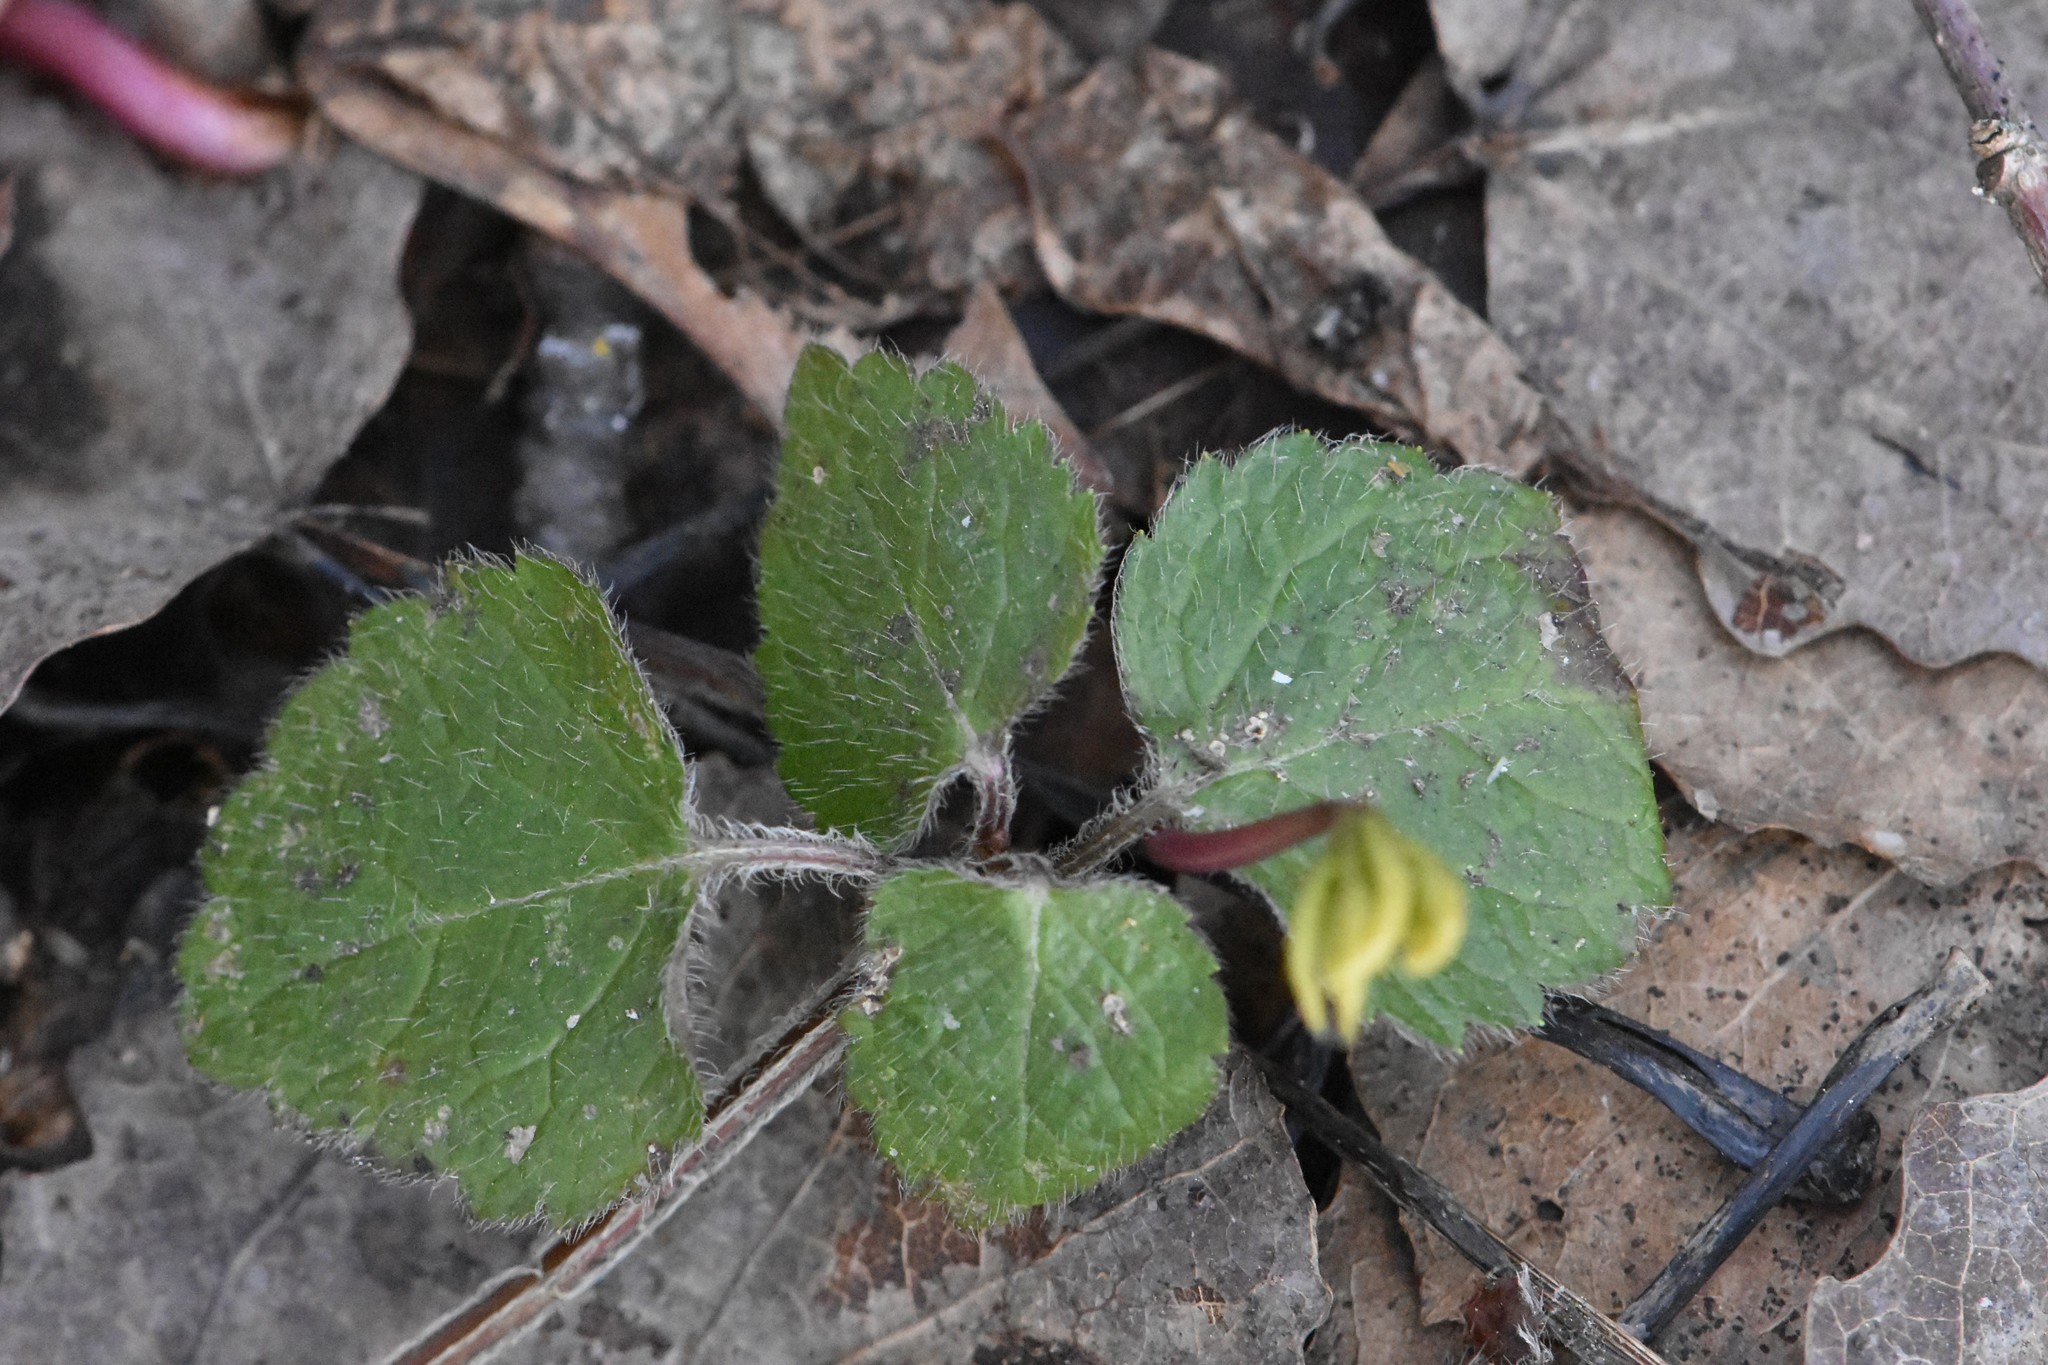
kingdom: Plantae
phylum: Tracheophyta
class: Magnoliopsida
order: Lamiales
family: Lamiaceae
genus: Lamium
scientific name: Lamium galeobdolon
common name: Yellow archangel
